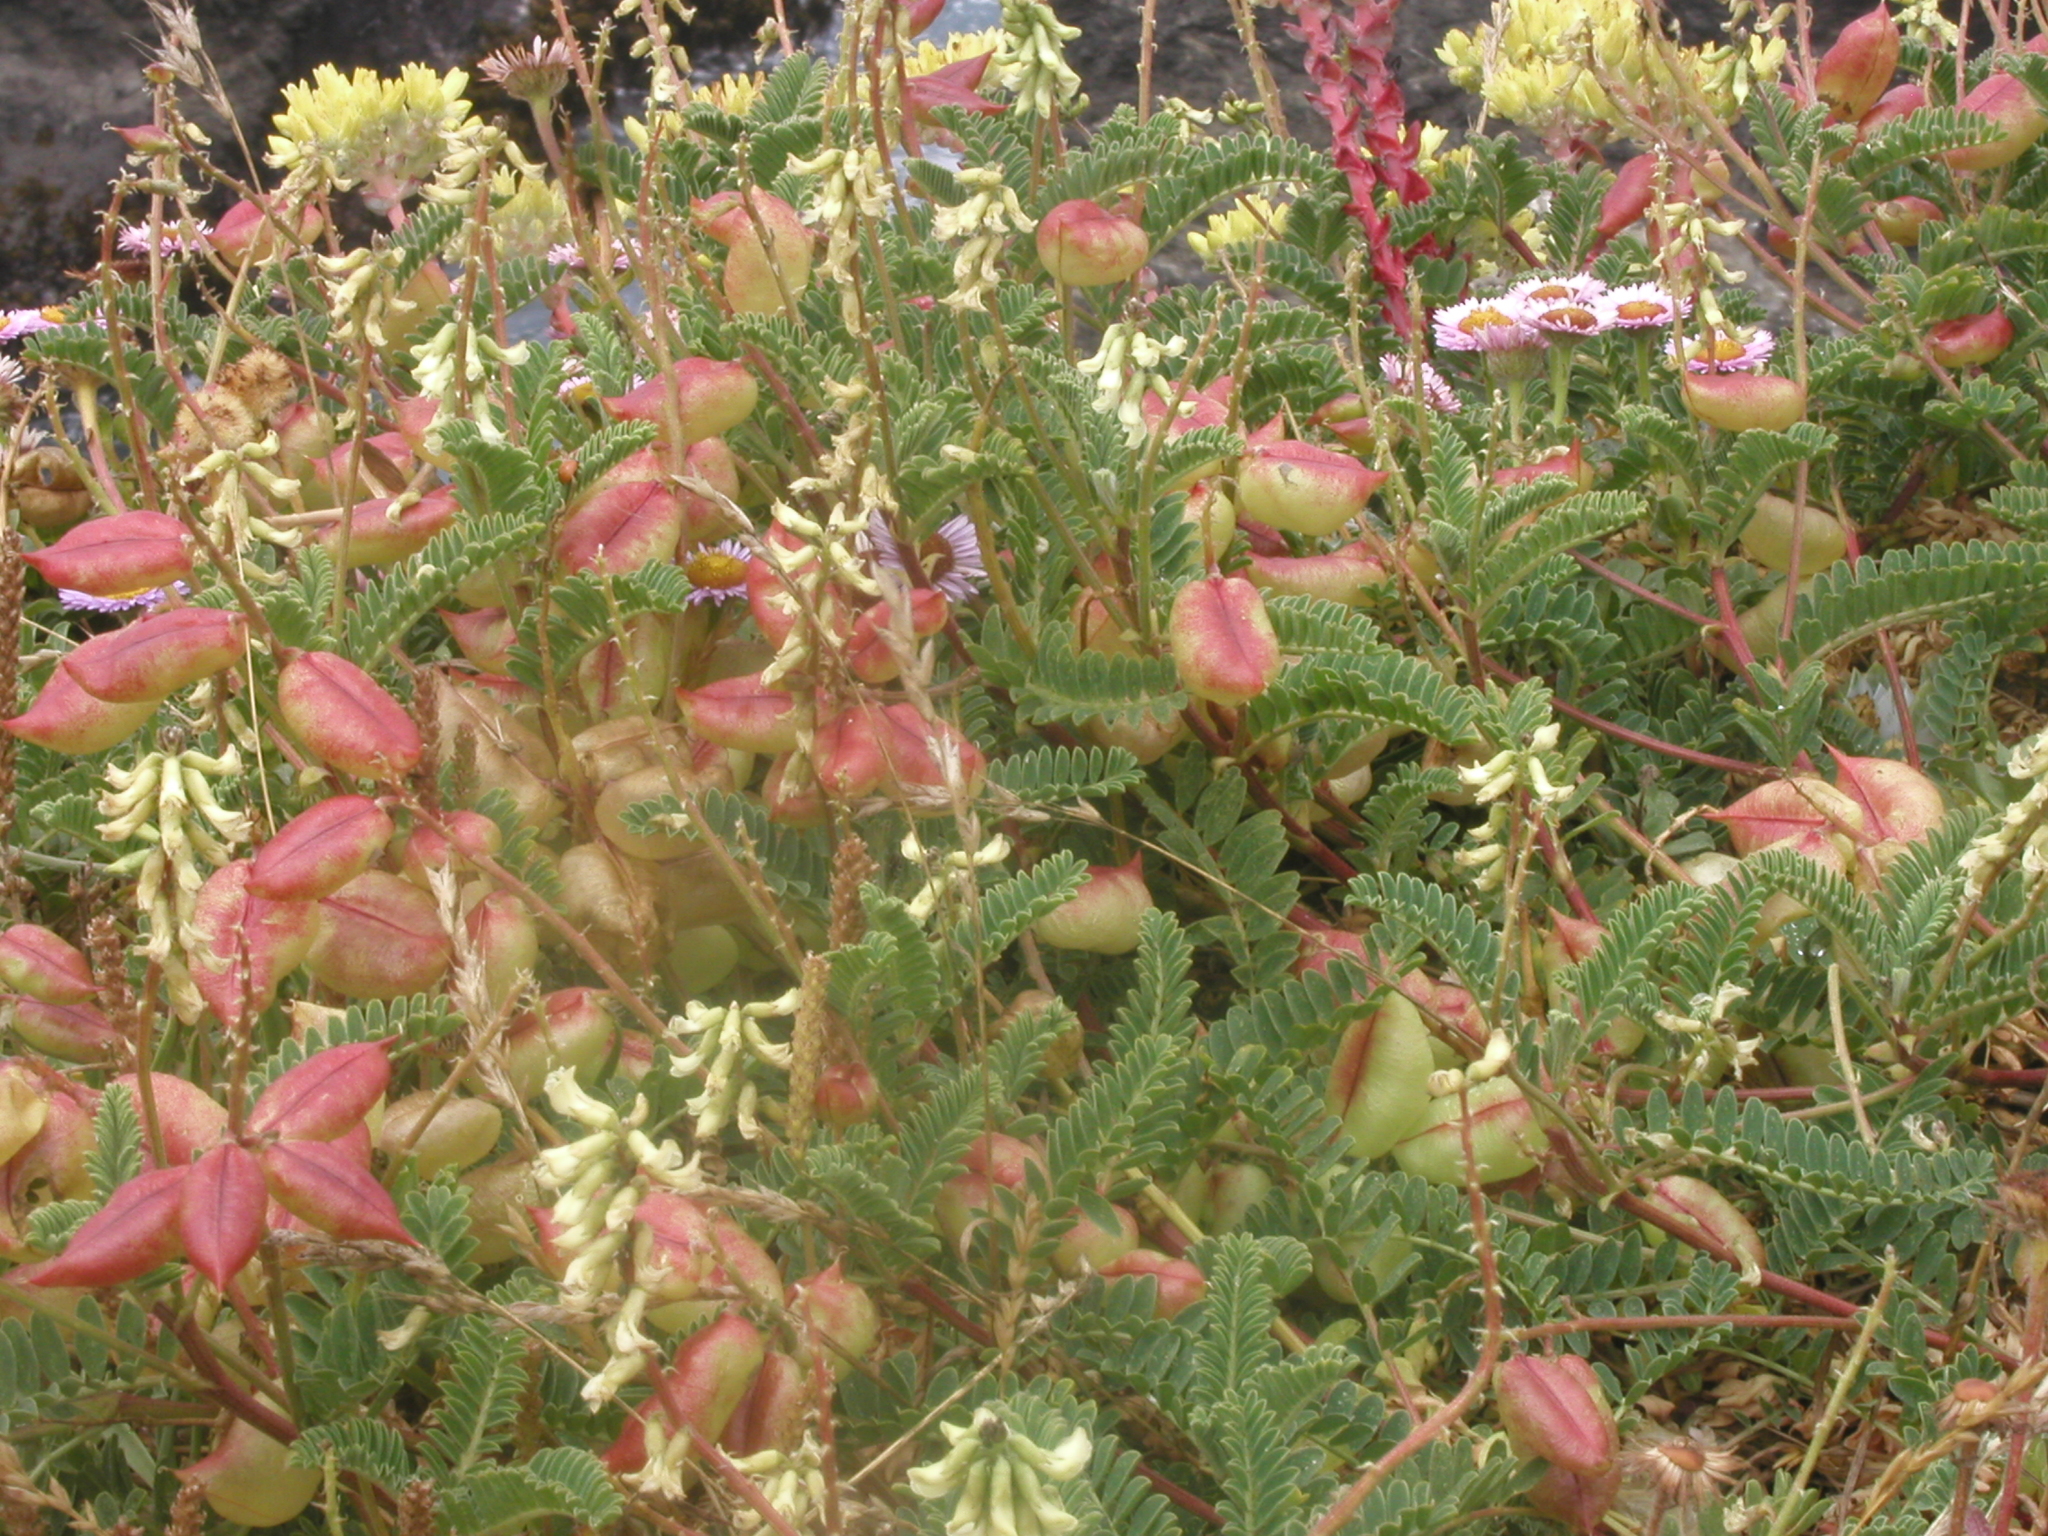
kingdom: Plantae
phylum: Tracheophyta
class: Magnoliopsida
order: Fabales
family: Fabaceae
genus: Astragalus
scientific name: Astragalus nuttallii
